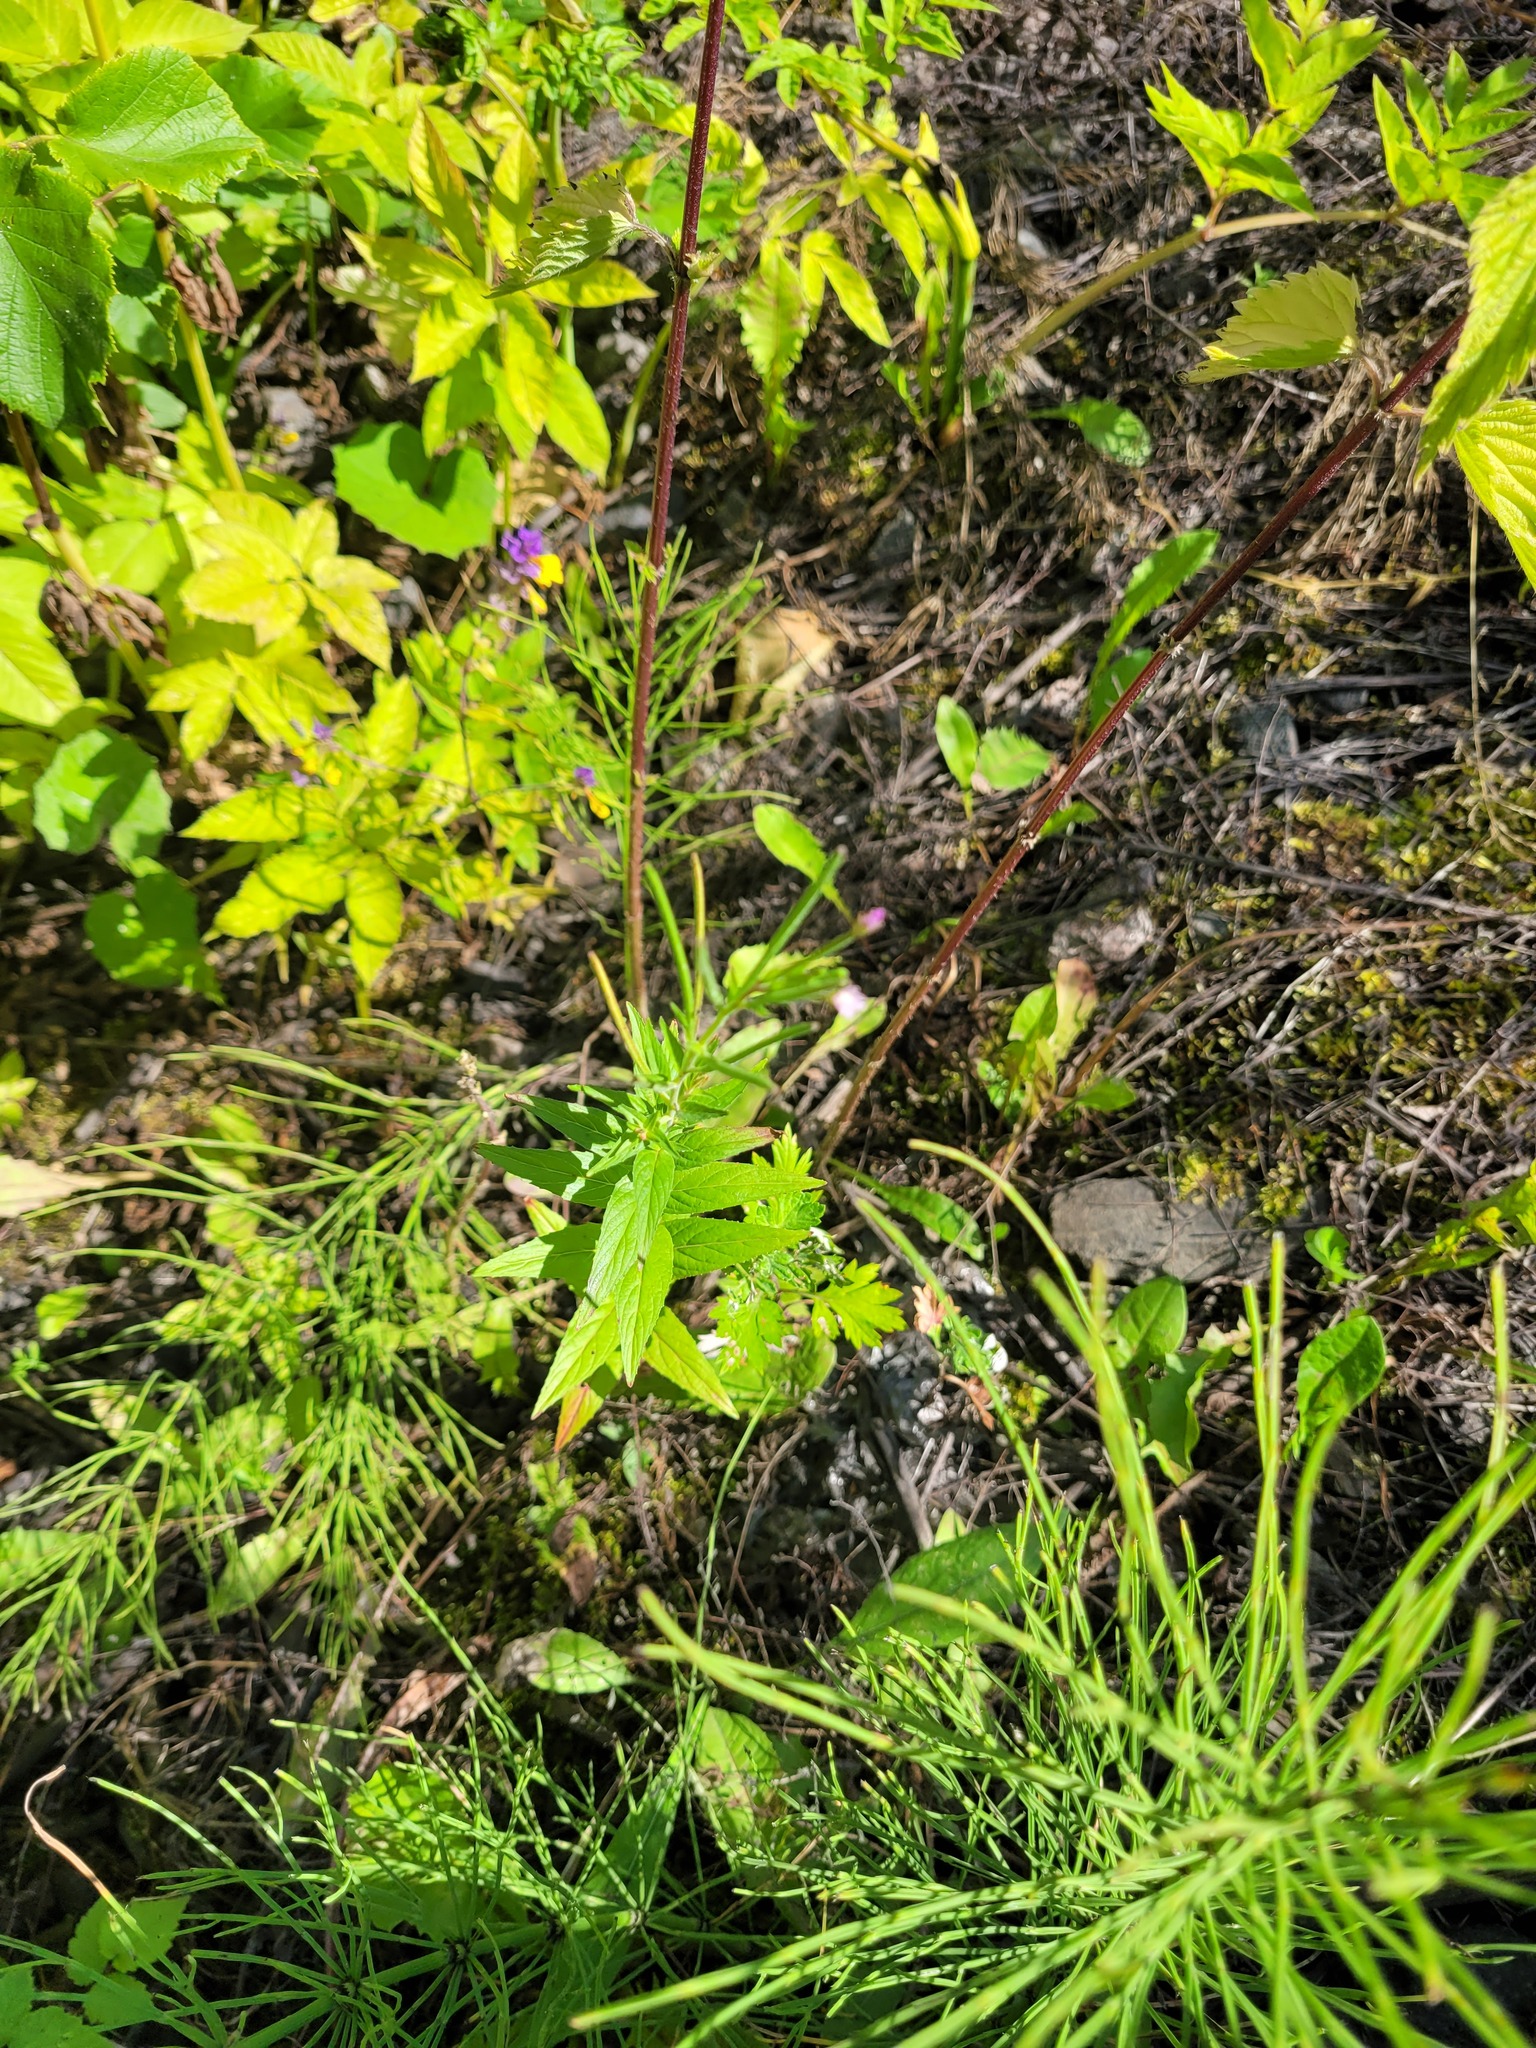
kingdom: Plantae
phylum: Tracheophyta
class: Magnoliopsida
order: Myrtales
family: Onagraceae
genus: Epilobium
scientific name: Epilobium ciliatum
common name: American willowherb
